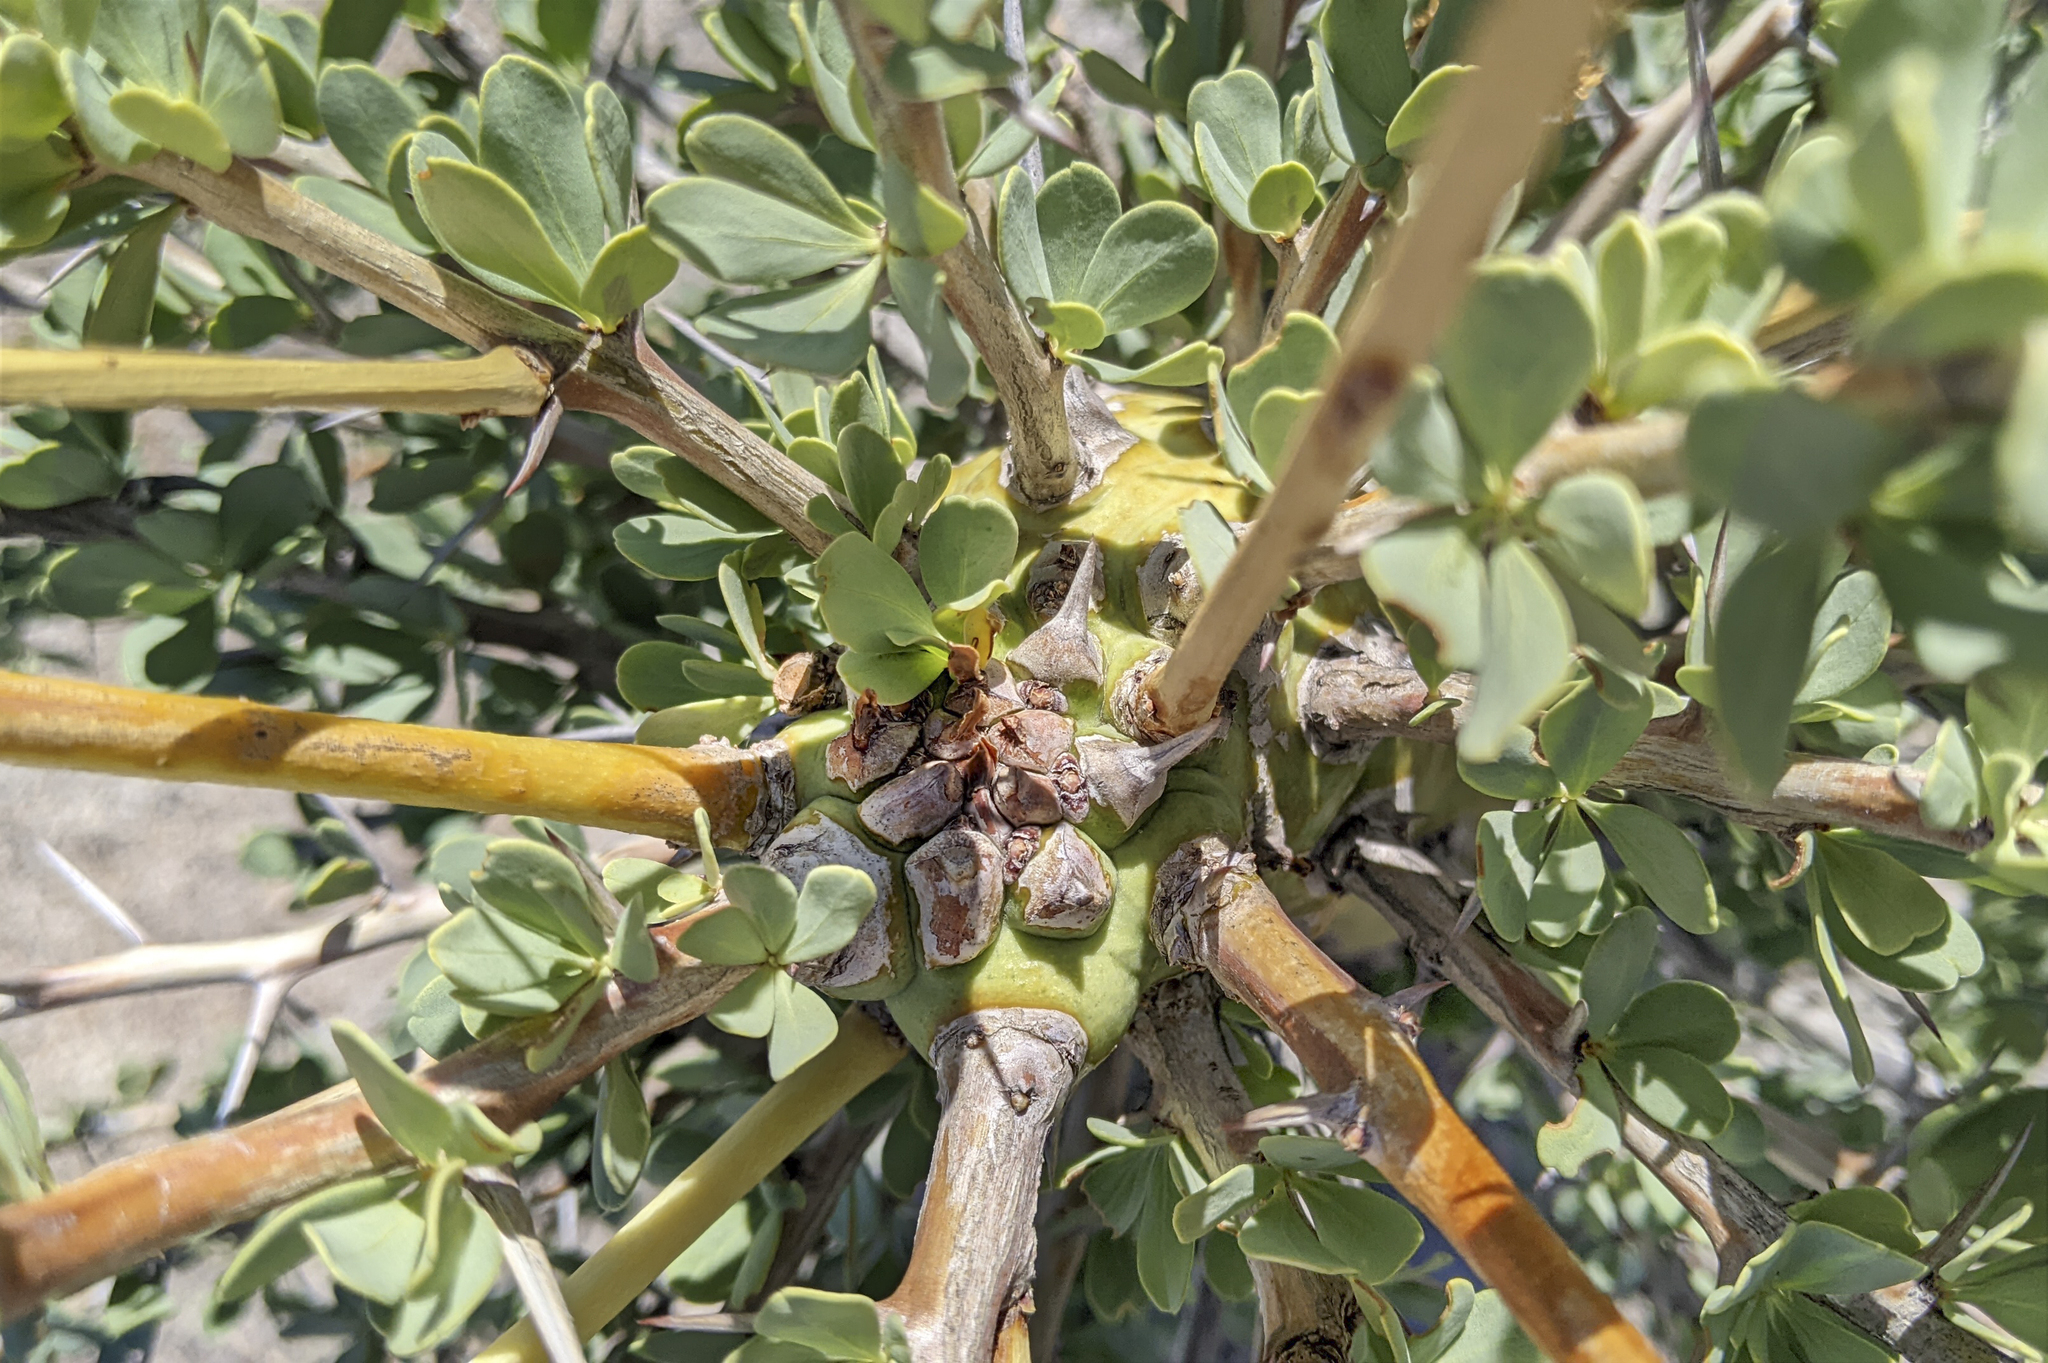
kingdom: Plantae
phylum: Tracheophyta
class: Magnoliopsida
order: Ericales
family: Fouquieriaceae
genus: Fouquieria
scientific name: Fouquieria columnaris
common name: Boojumtree
